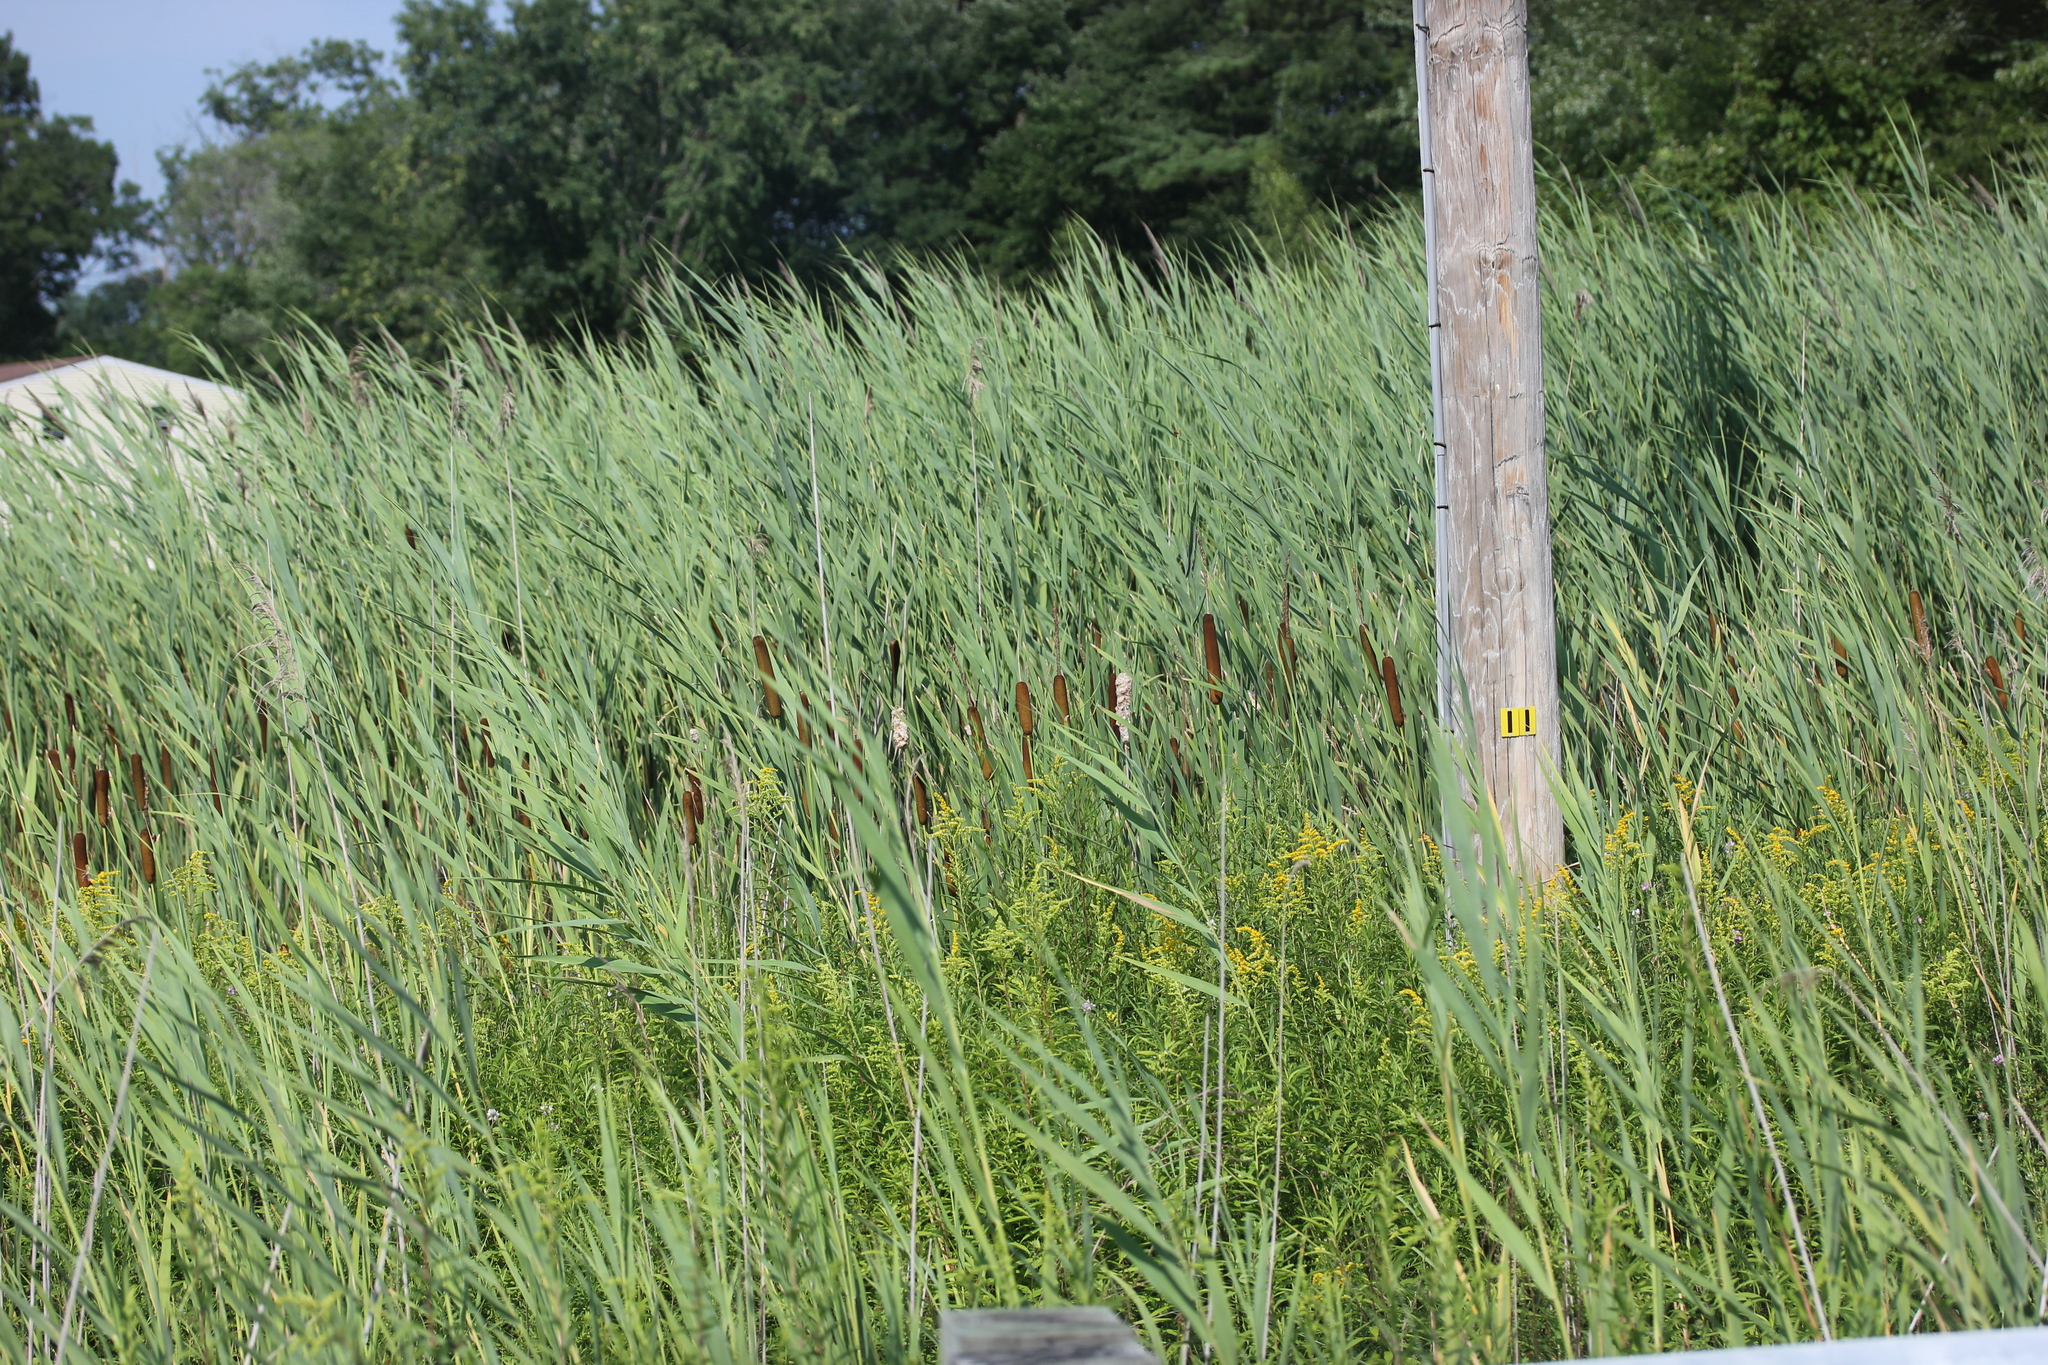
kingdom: Plantae
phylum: Tracheophyta
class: Liliopsida
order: Poales
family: Typhaceae
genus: Typha
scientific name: Typha latifolia
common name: Broadleaf cattail
